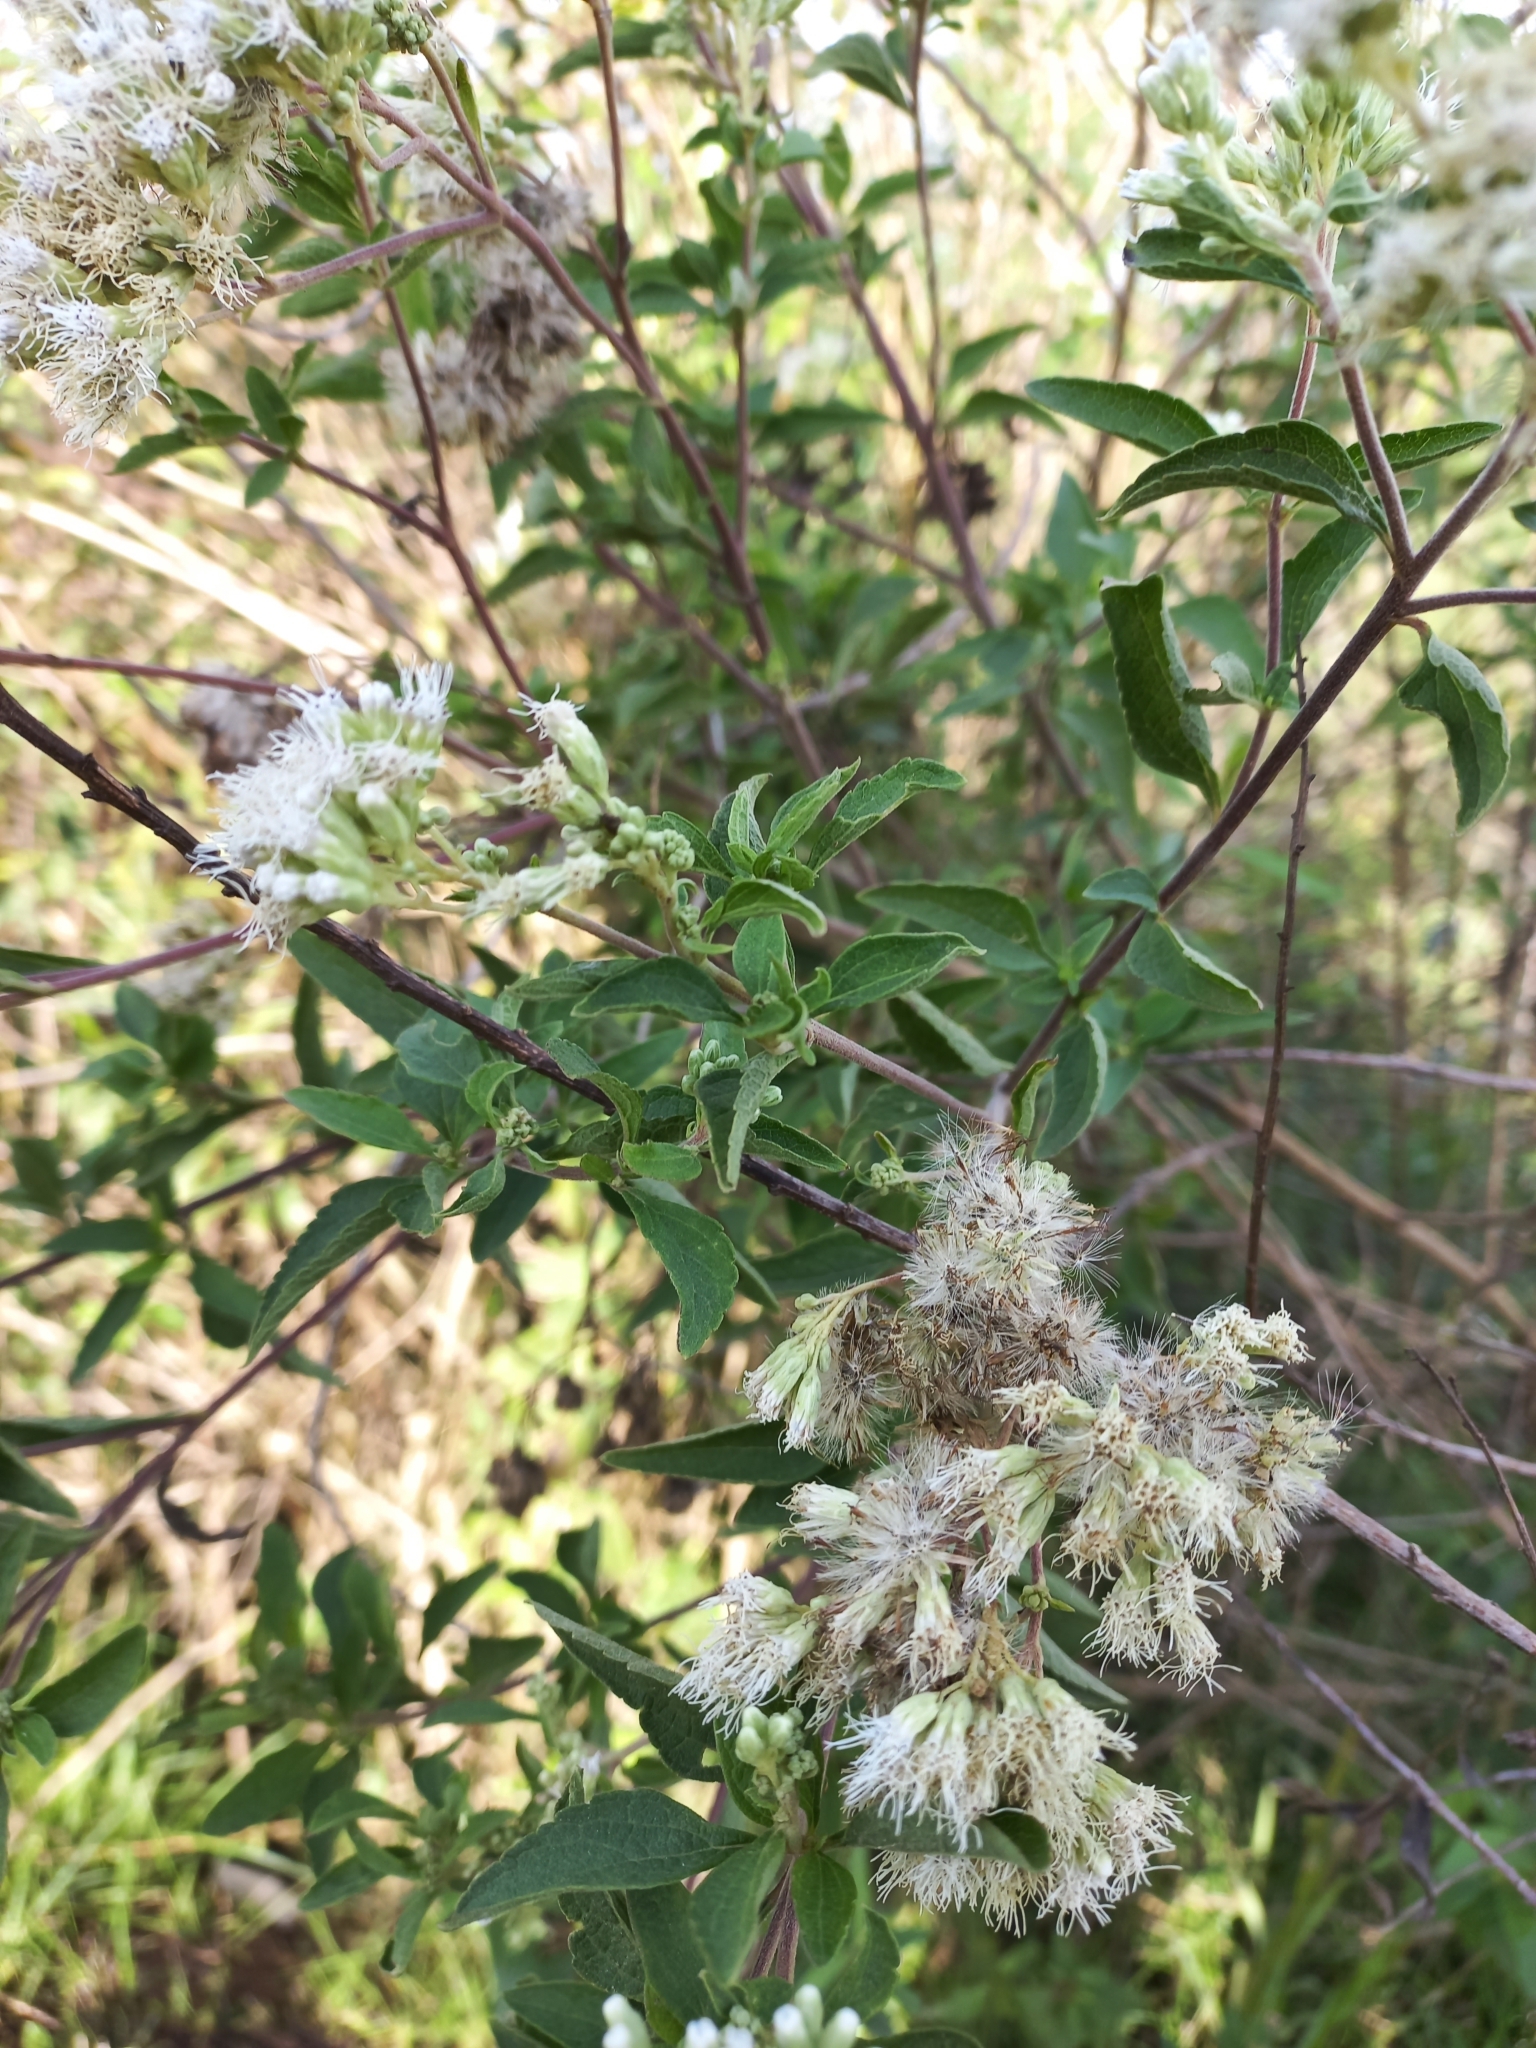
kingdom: Plantae
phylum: Tracheophyta
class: Magnoliopsida
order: Asterales
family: Asteraceae
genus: Austroeupatorium
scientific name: Austroeupatorium inulifolium
